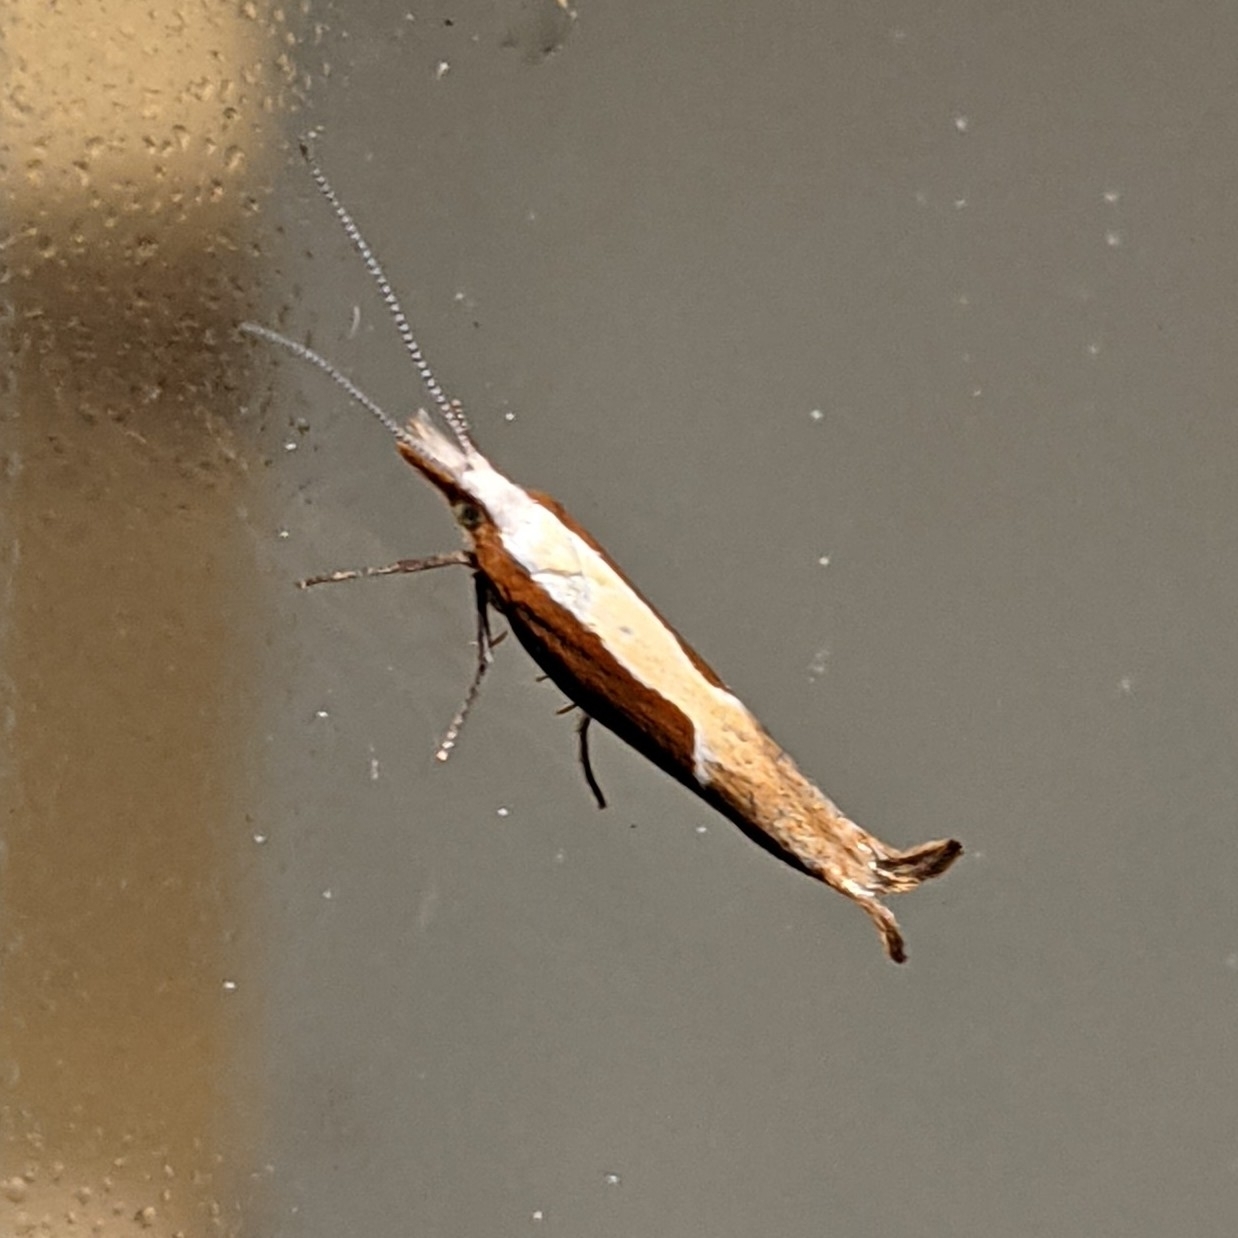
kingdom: Animalia
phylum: Arthropoda
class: Insecta
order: Lepidoptera
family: Ypsolophidae
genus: Ypsolopha
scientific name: Ypsolopha dentella
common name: Honeysuckle moth
